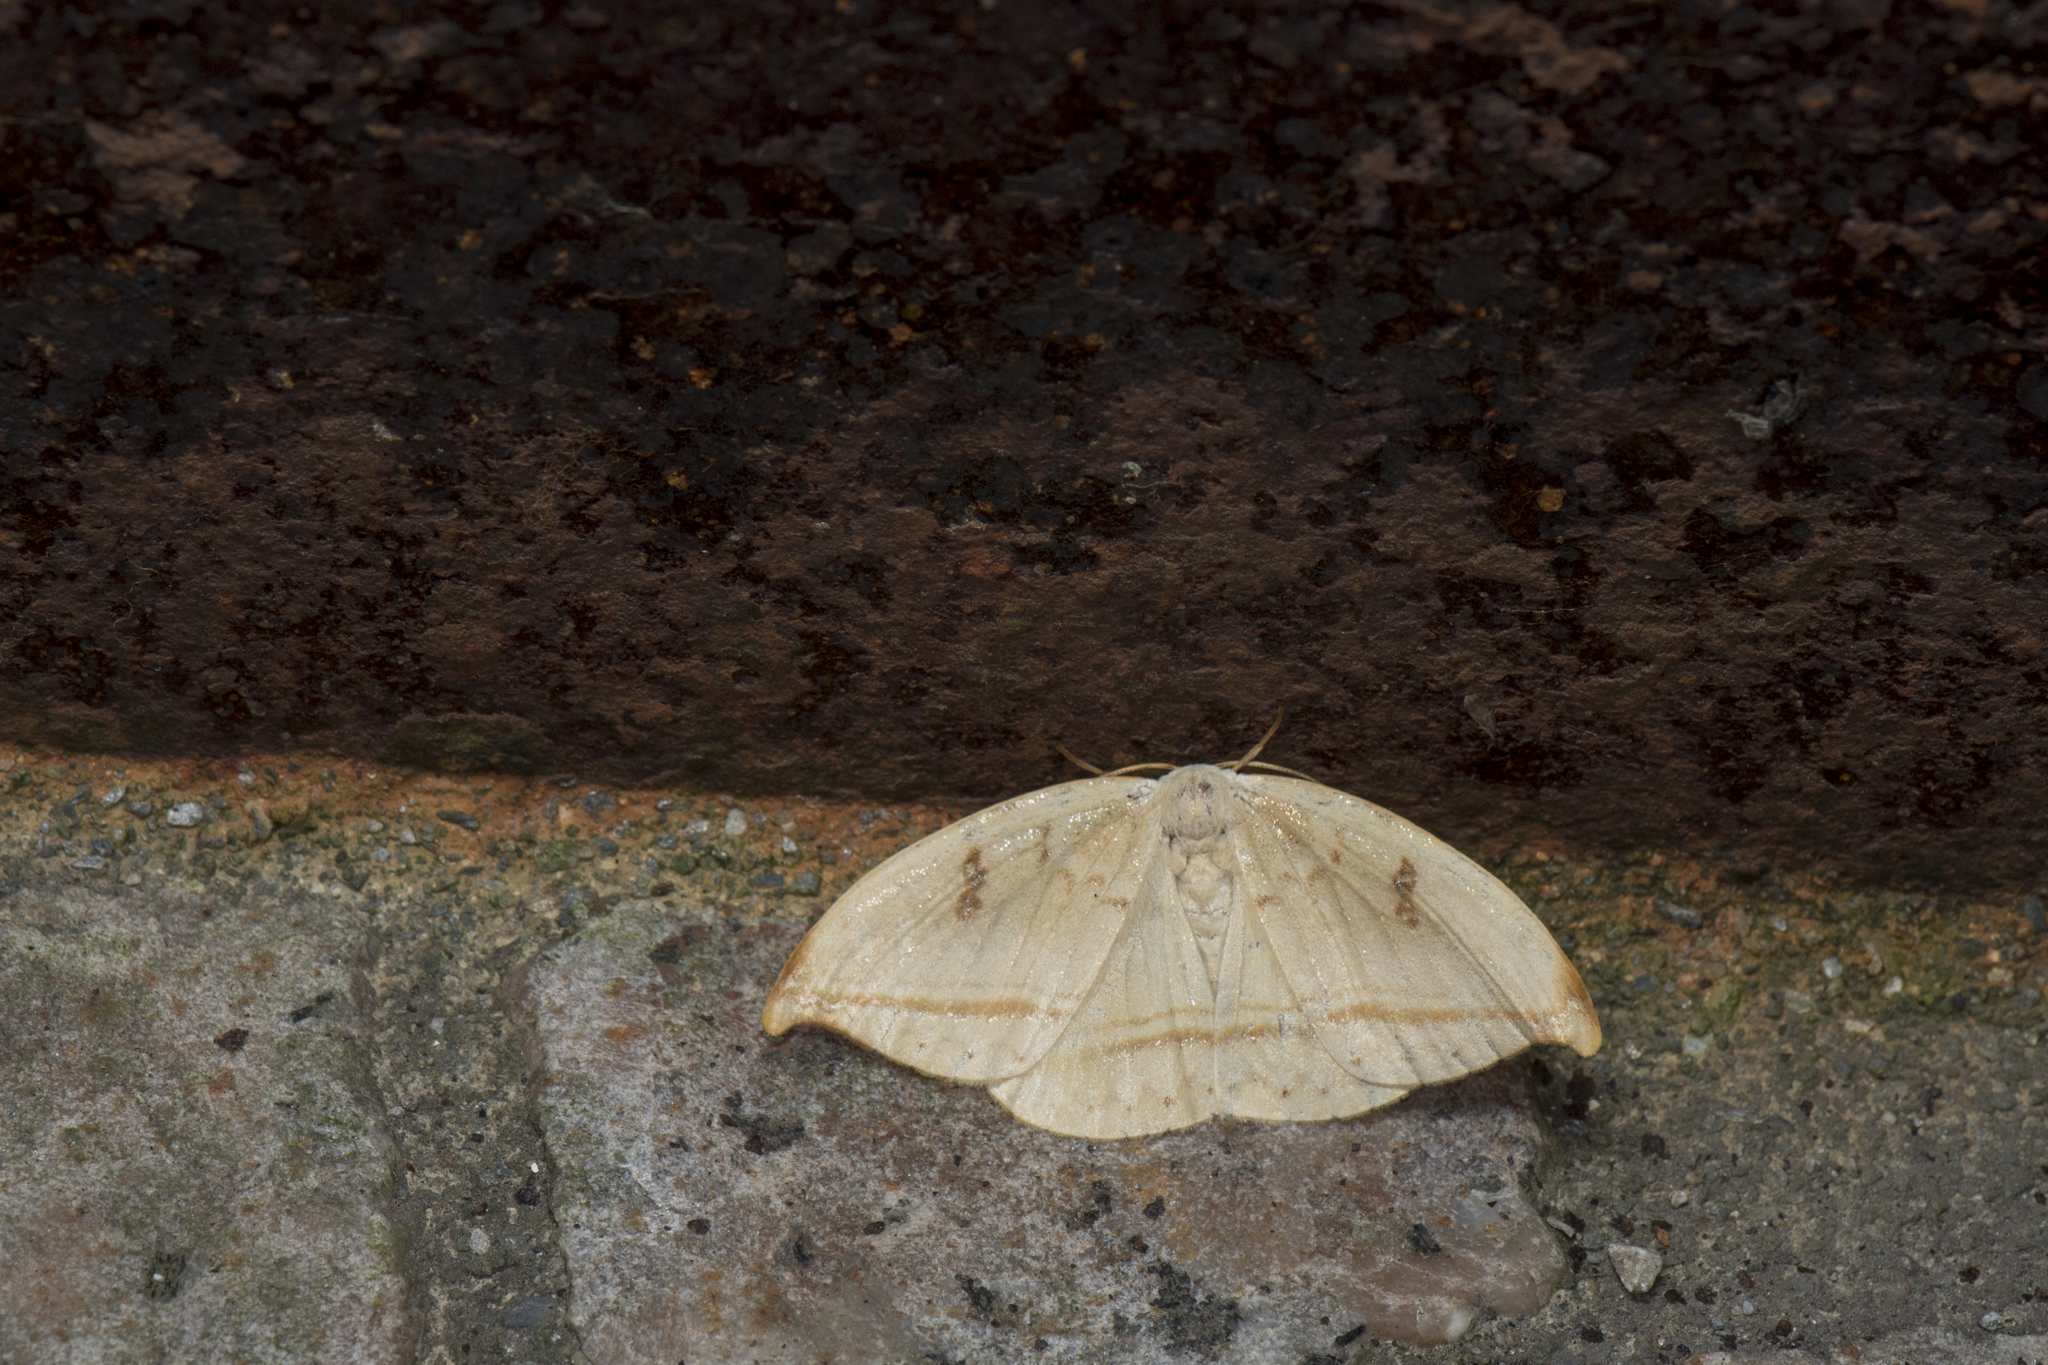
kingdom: Animalia
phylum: Arthropoda
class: Insecta
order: Lepidoptera
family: Drepanidae
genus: Callidrepana
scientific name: Callidrepana patrana
